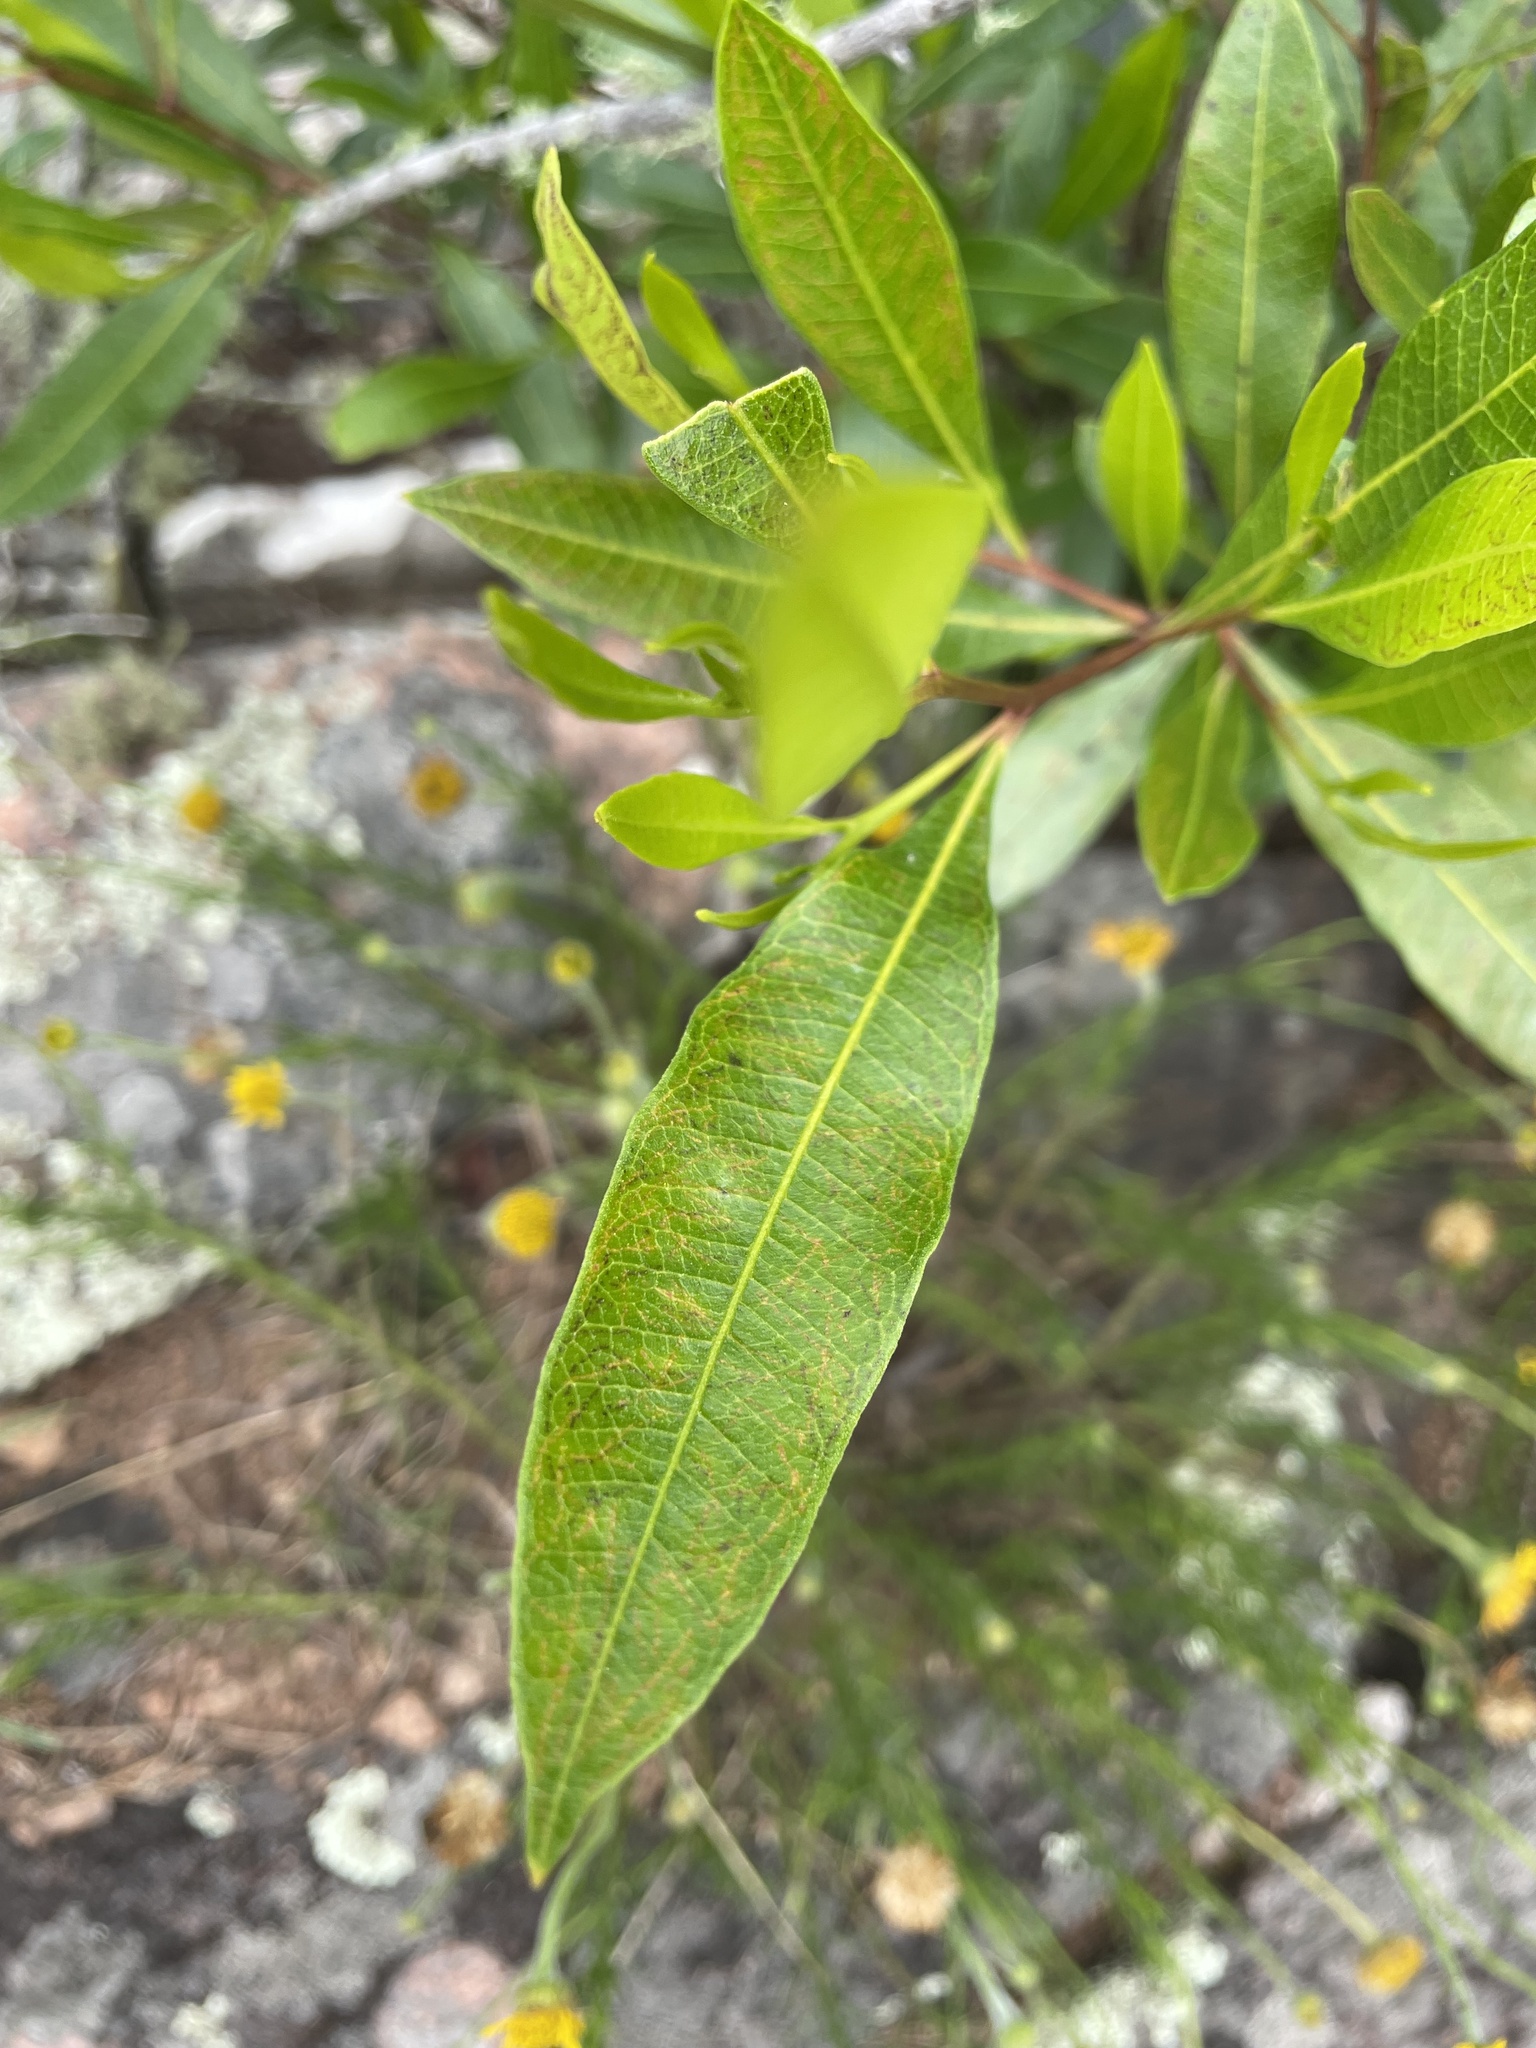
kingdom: Plantae
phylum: Tracheophyta
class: Magnoliopsida
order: Sapindales
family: Sapindaceae
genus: Dodonaea
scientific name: Dodonaea viscosa
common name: Hopbush
